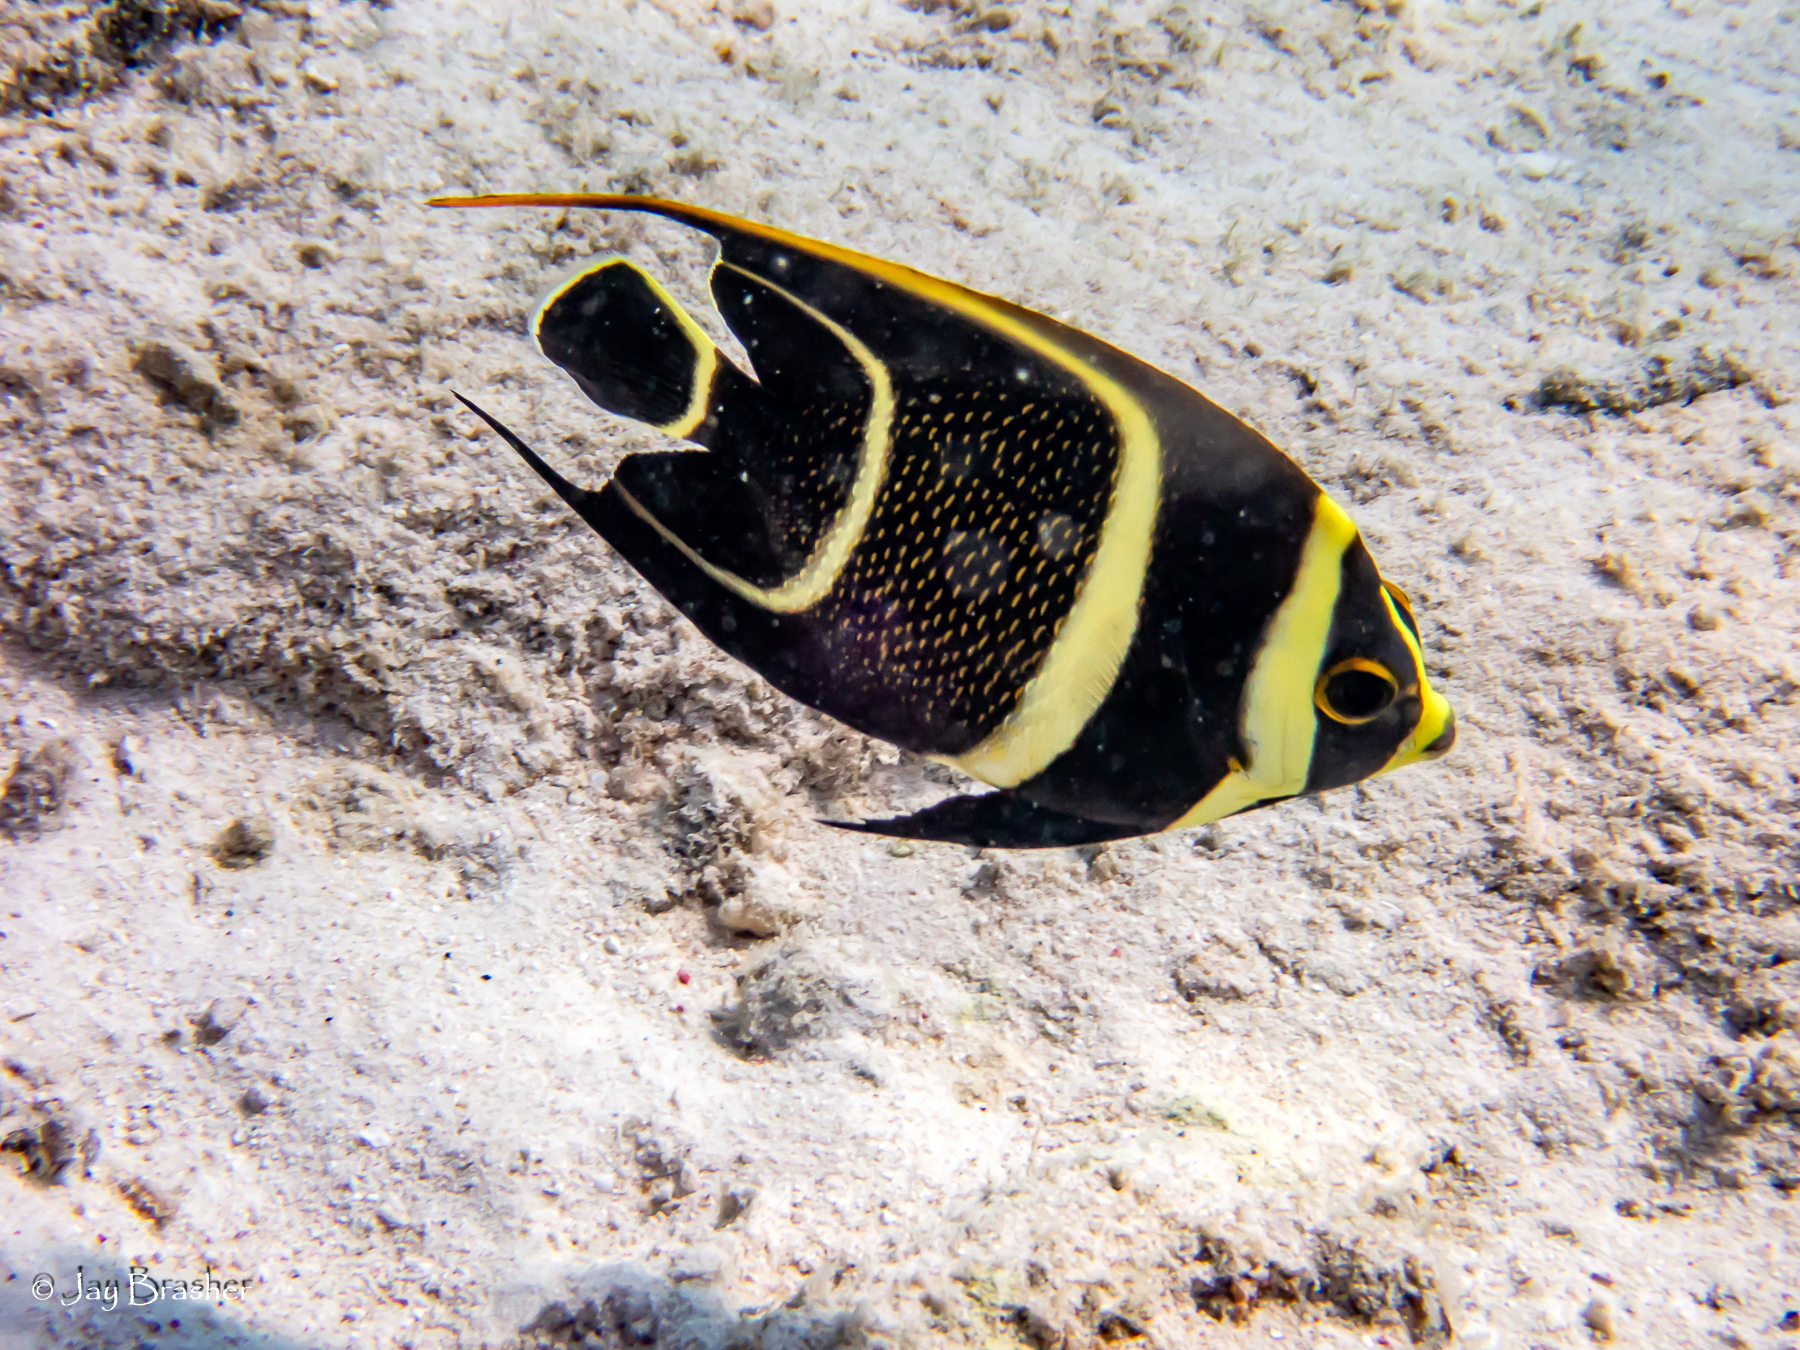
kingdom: Animalia
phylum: Chordata
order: Perciformes
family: Pomacanthidae
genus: Pomacanthus
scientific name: Pomacanthus paru
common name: French angelfish
